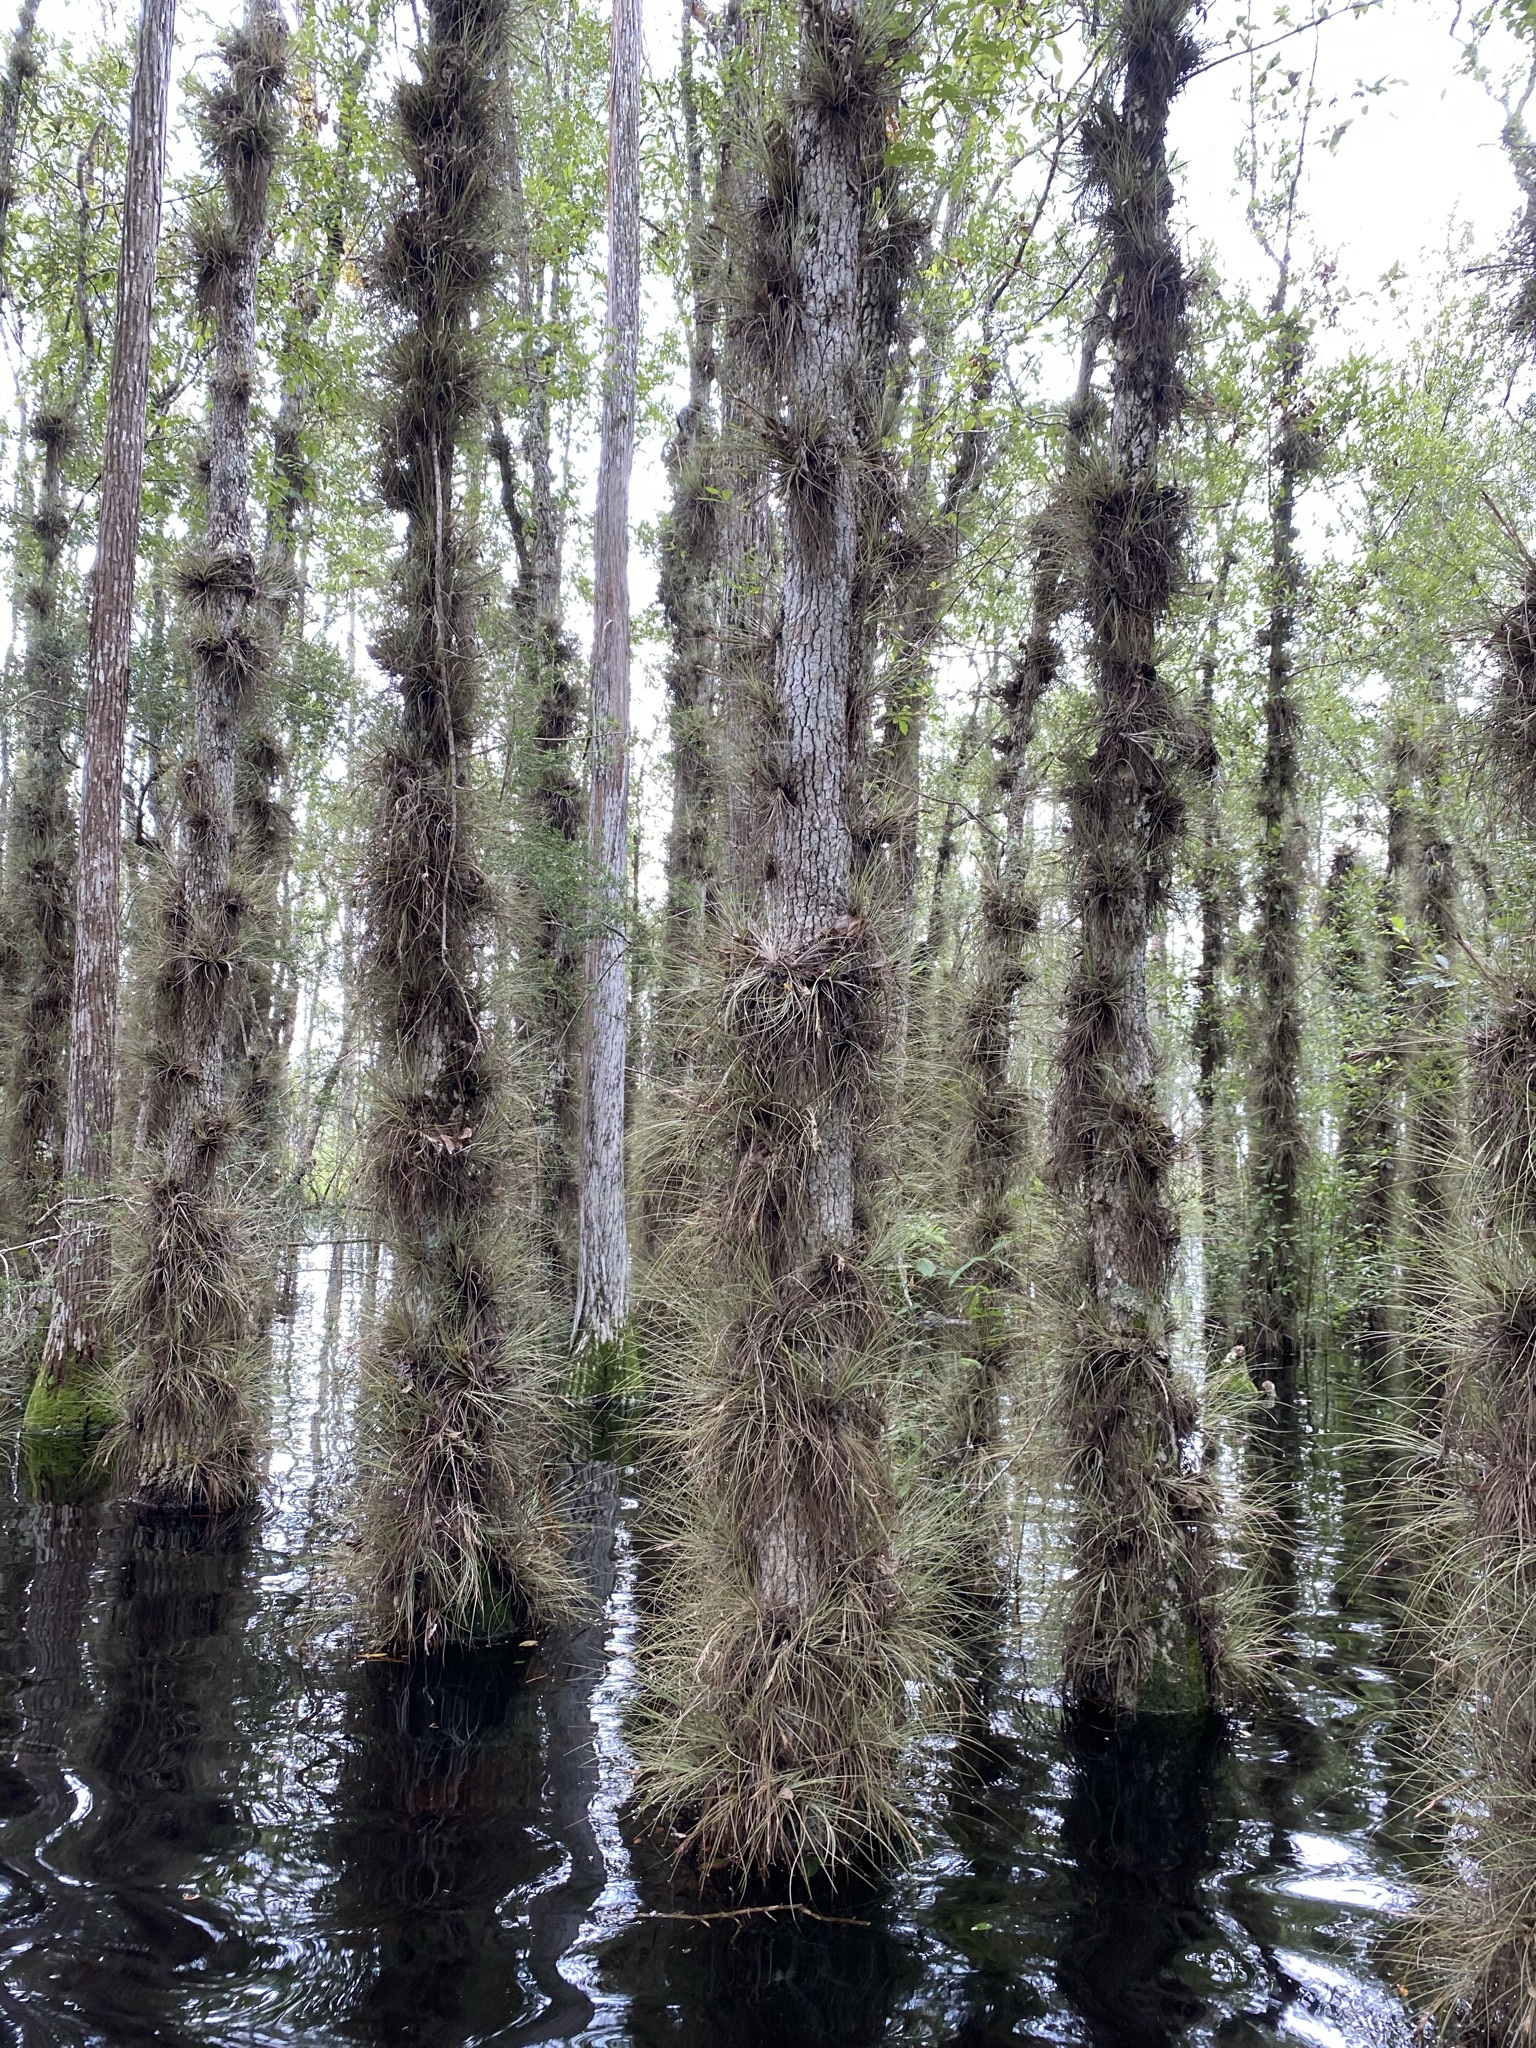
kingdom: Plantae
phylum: Tracheophyta
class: Liliopsida
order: Poales
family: Bromeliaceae
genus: Tillandsia
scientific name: Tillandsia bartramii
